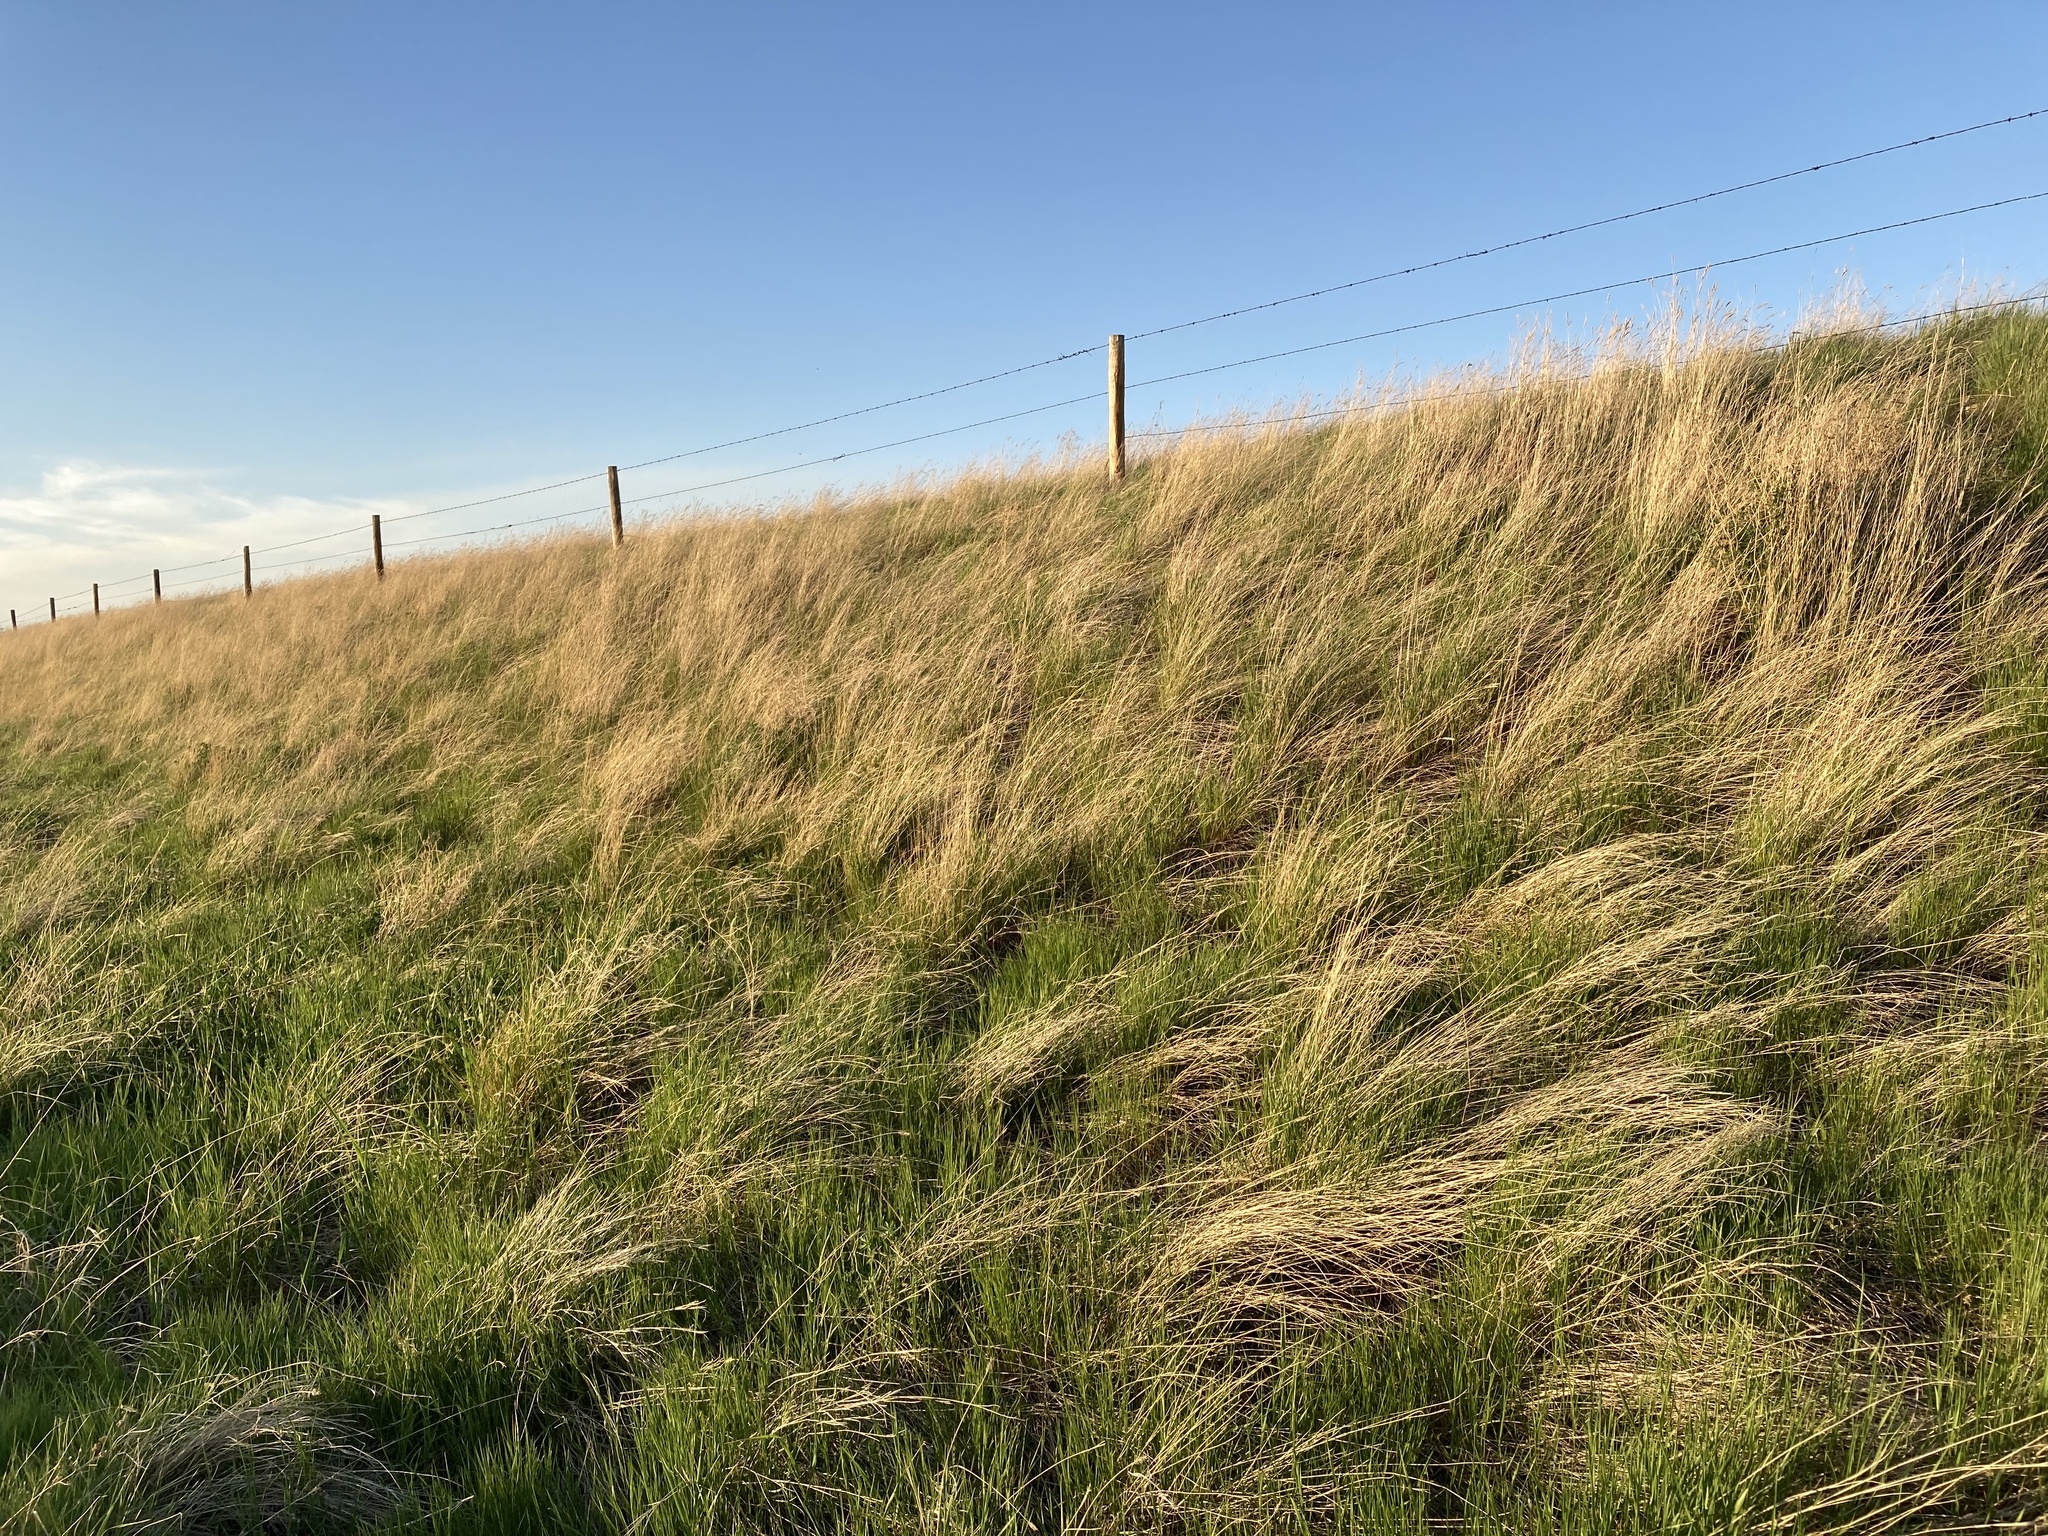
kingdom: Plantae
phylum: Tracheophyta
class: Liliopsida
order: Poales
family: Poaceae
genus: Agropyron
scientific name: Agropyron cristatum
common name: Crested wheatgrass
